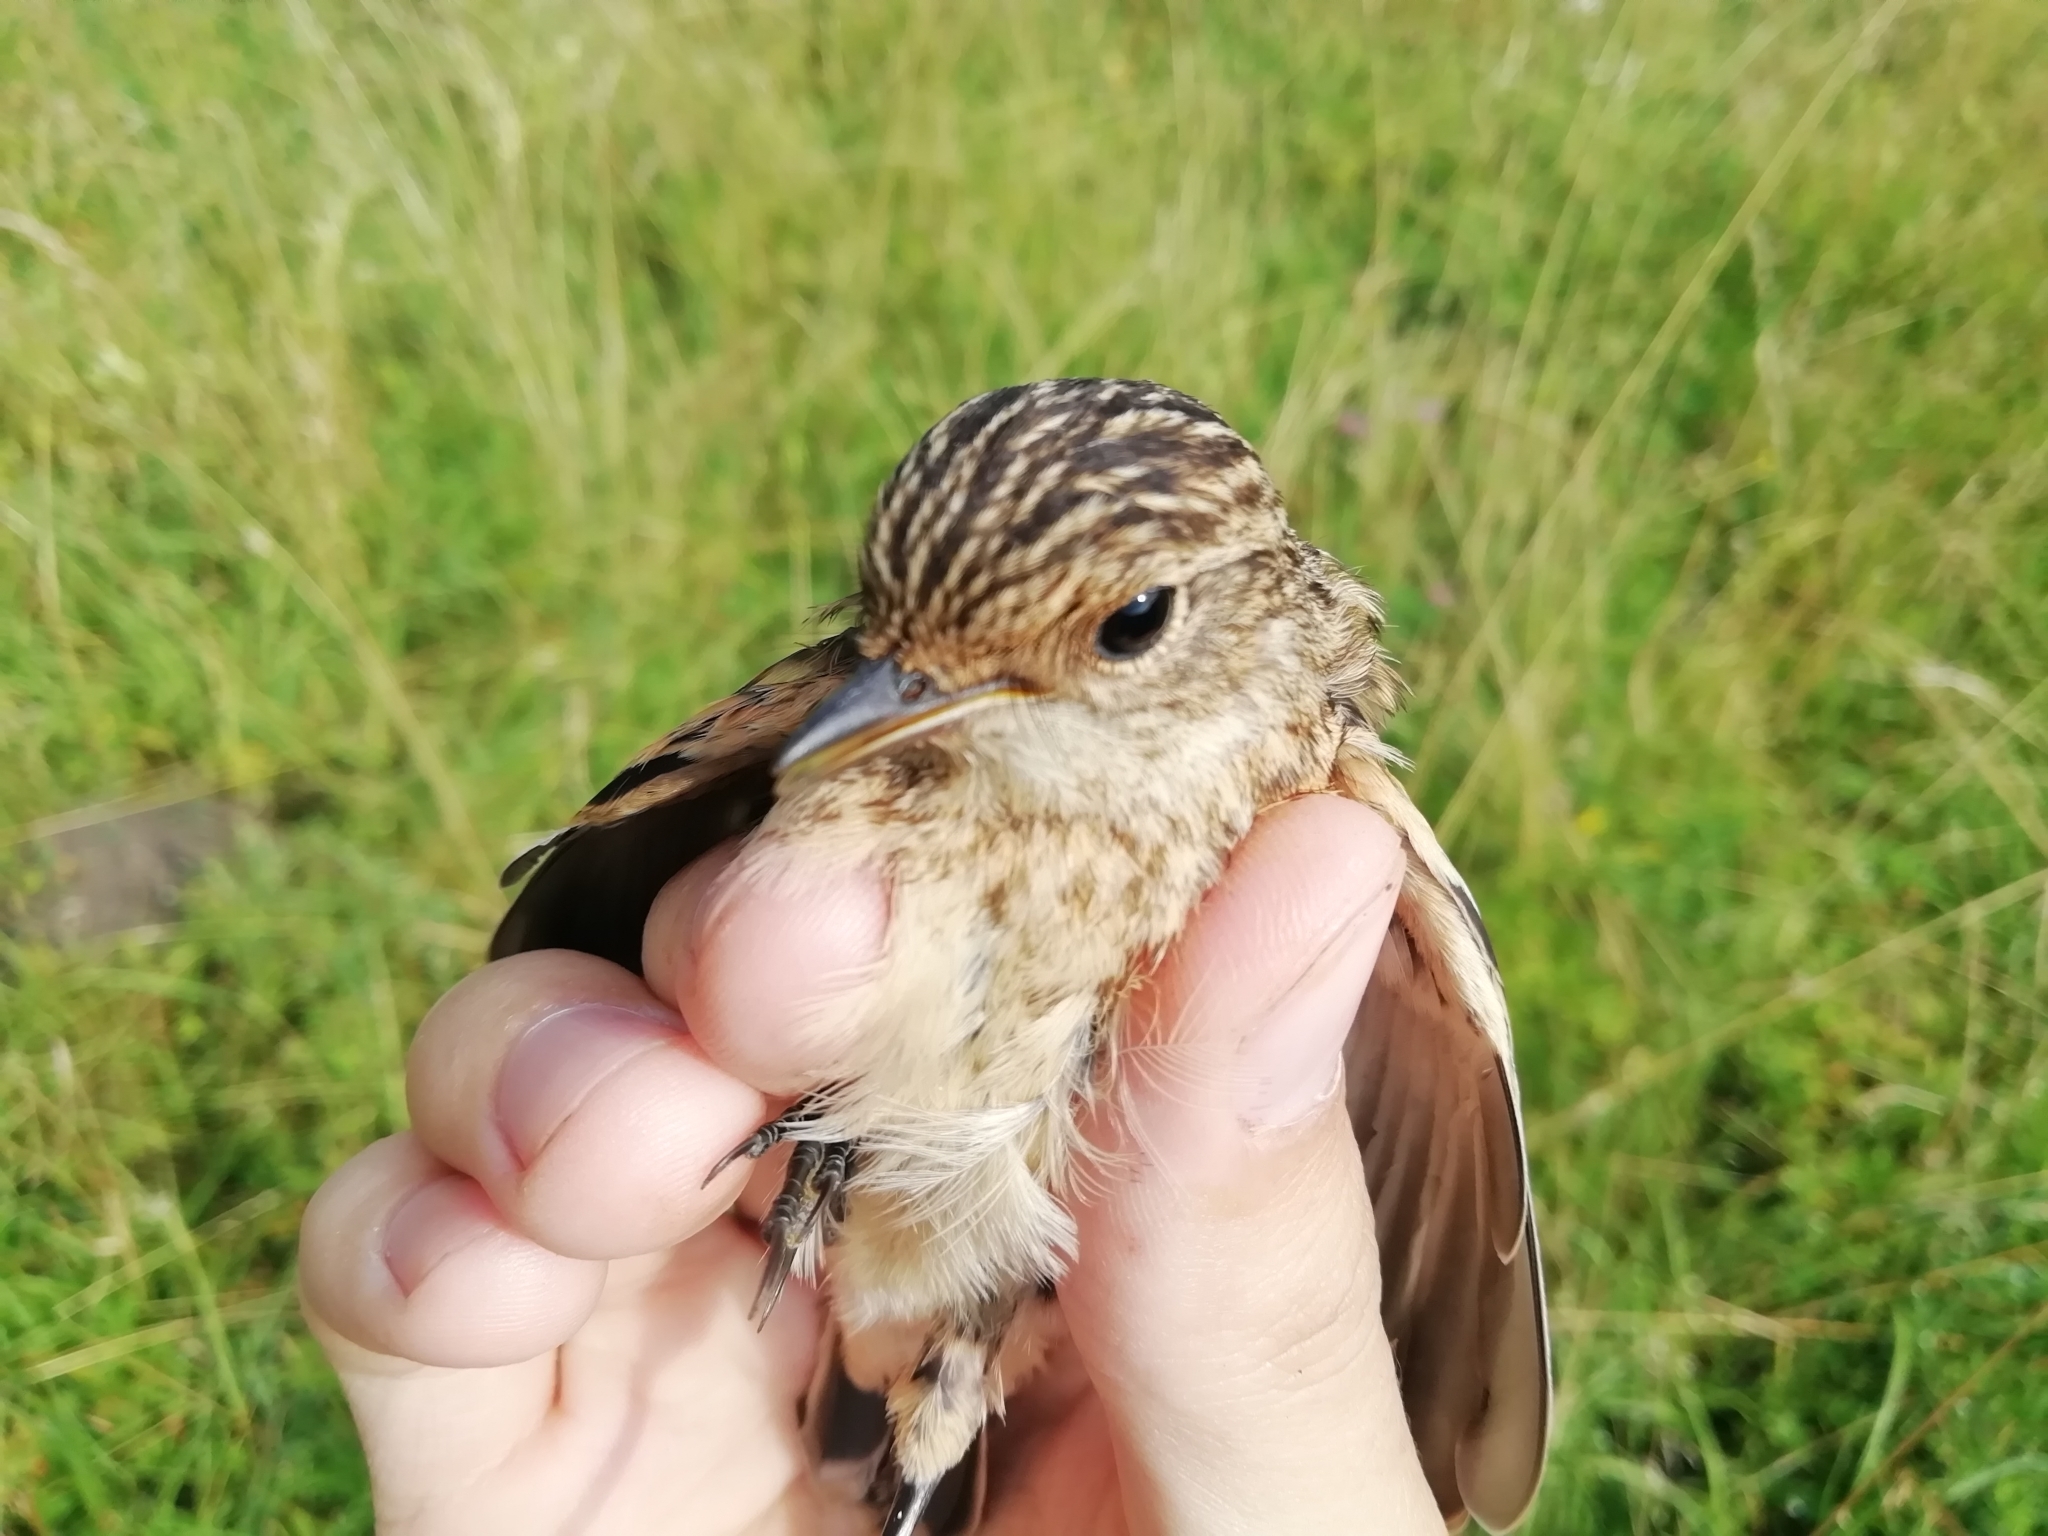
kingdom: Animalia
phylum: Chordata
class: Aves
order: Passeriformes
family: Muscicapidae
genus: Saxicola
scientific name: Saxicola maurus
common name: Siberian stonechat
